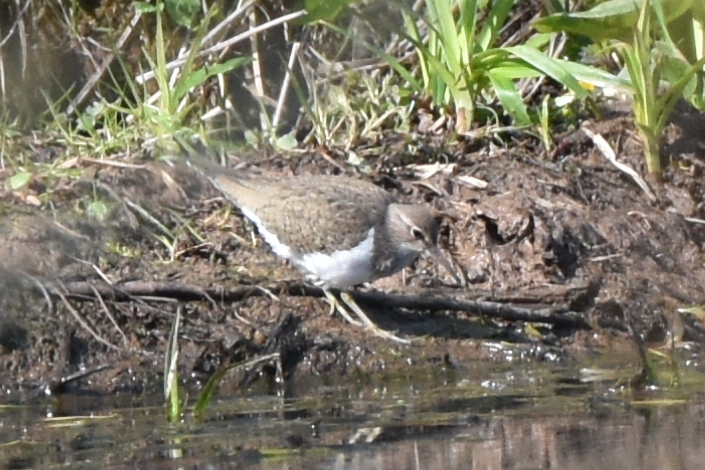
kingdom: Animalia
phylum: Chordata
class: Aves
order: Charadriiformes
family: Scolopacidae
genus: Actitis
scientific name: Actitis hypoleucos
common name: Common sandpiper
